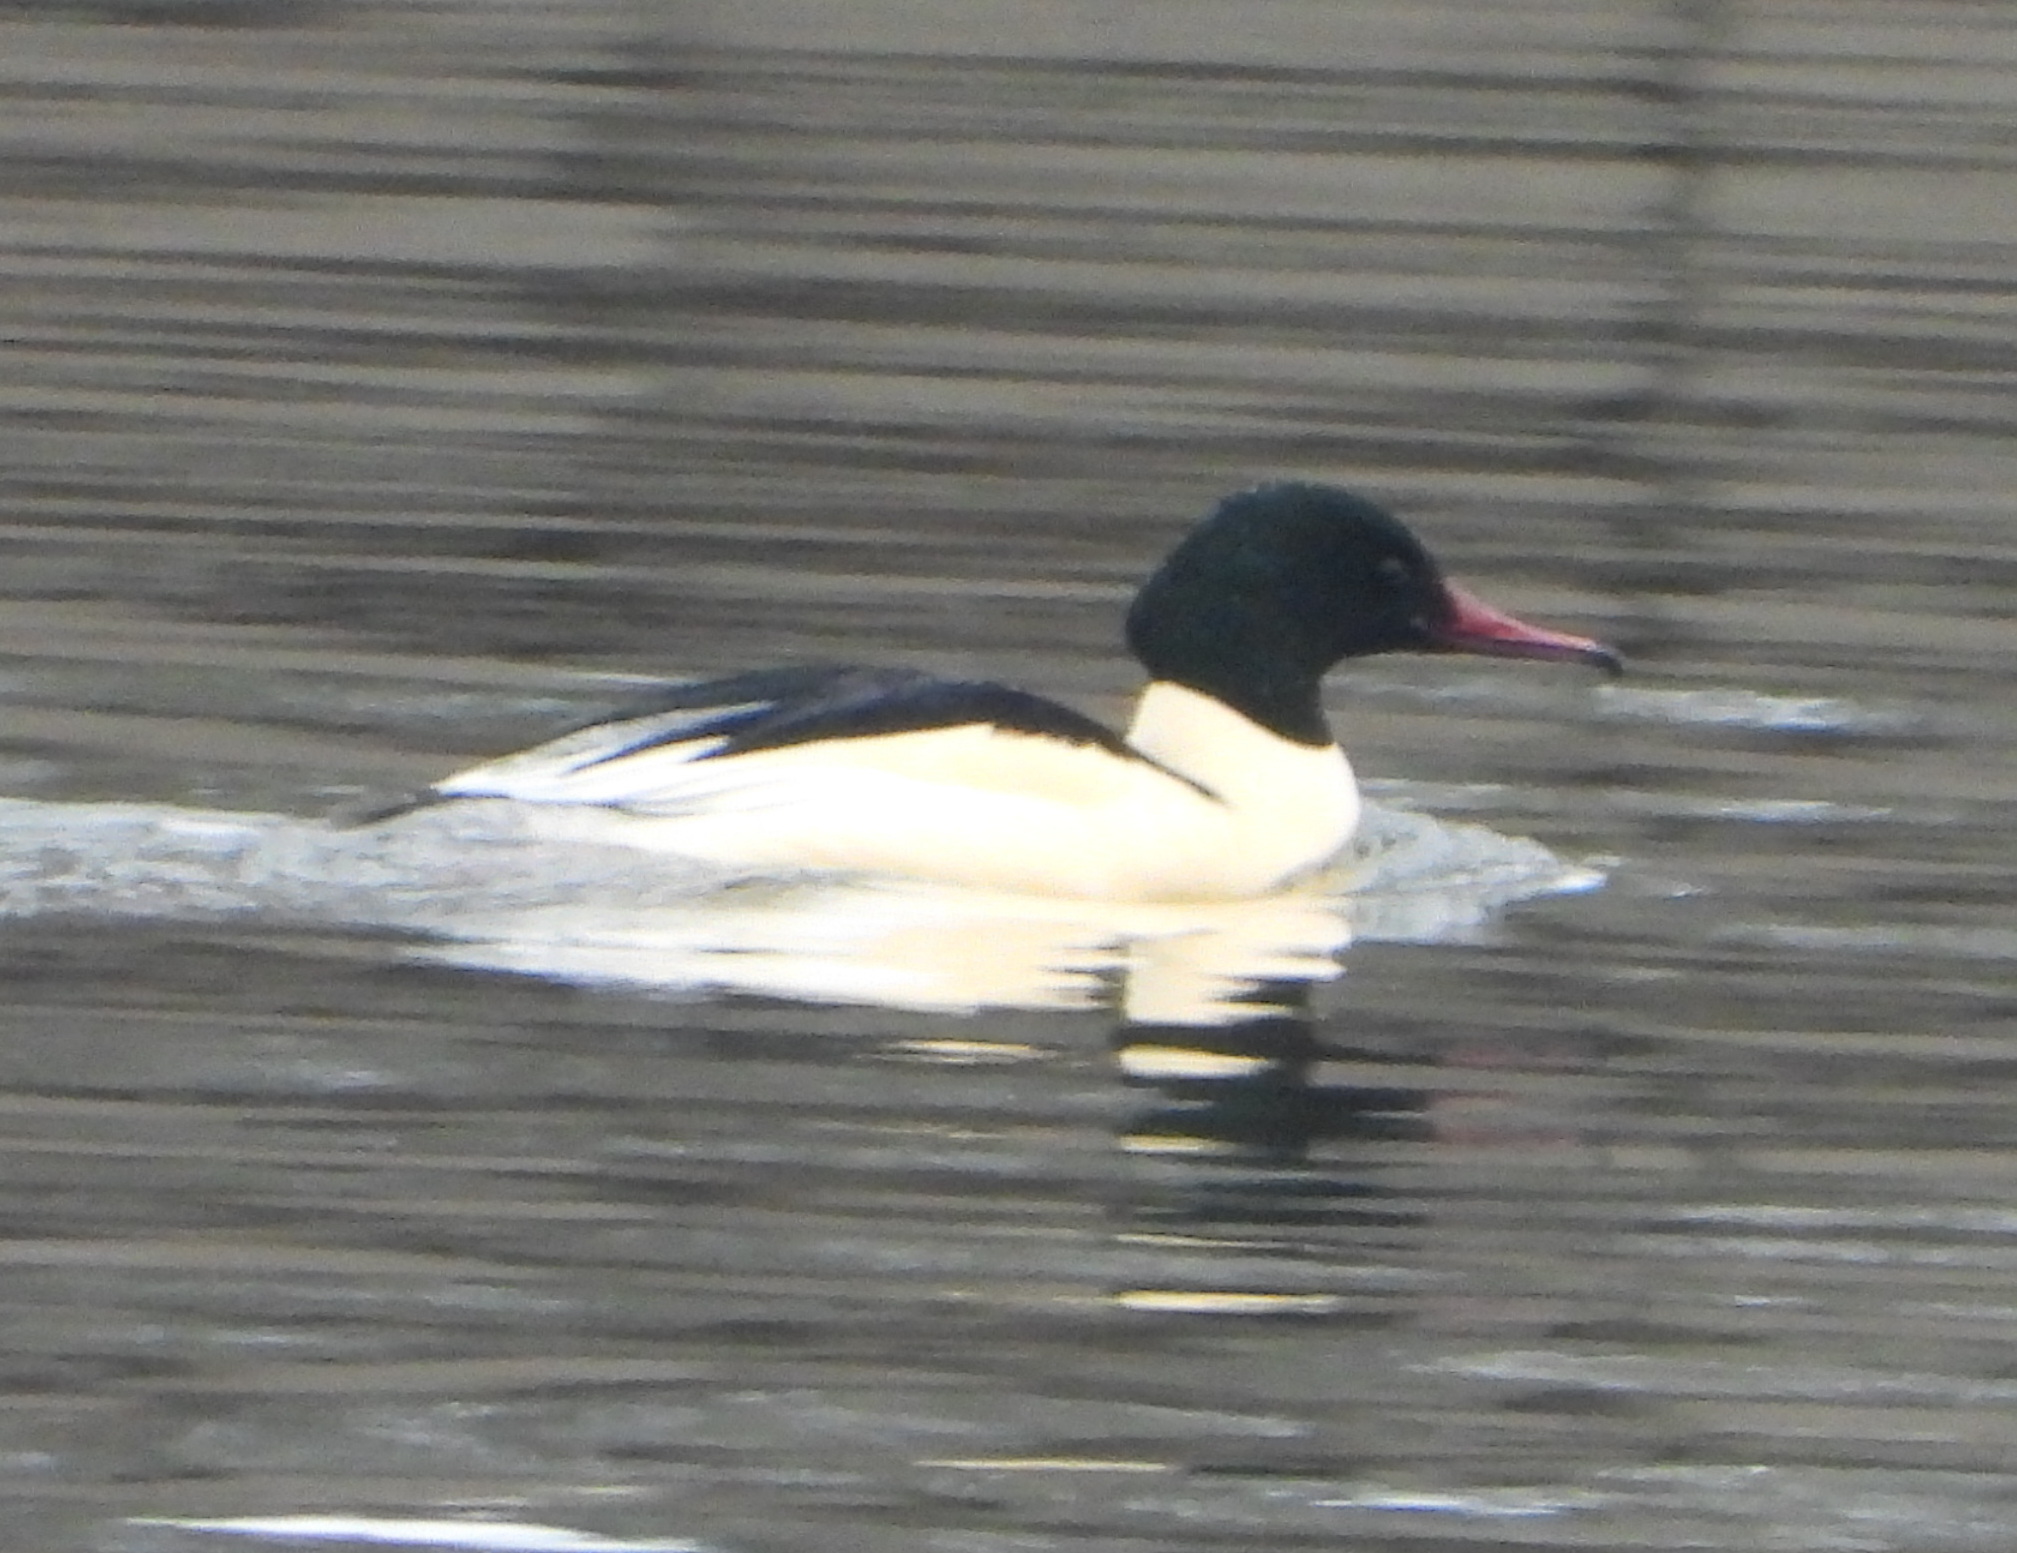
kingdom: Animalia
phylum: Chordata
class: Aves
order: Anseriformes
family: Anatidae
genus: Mergus
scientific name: Mergus merganser
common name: Common merganser
